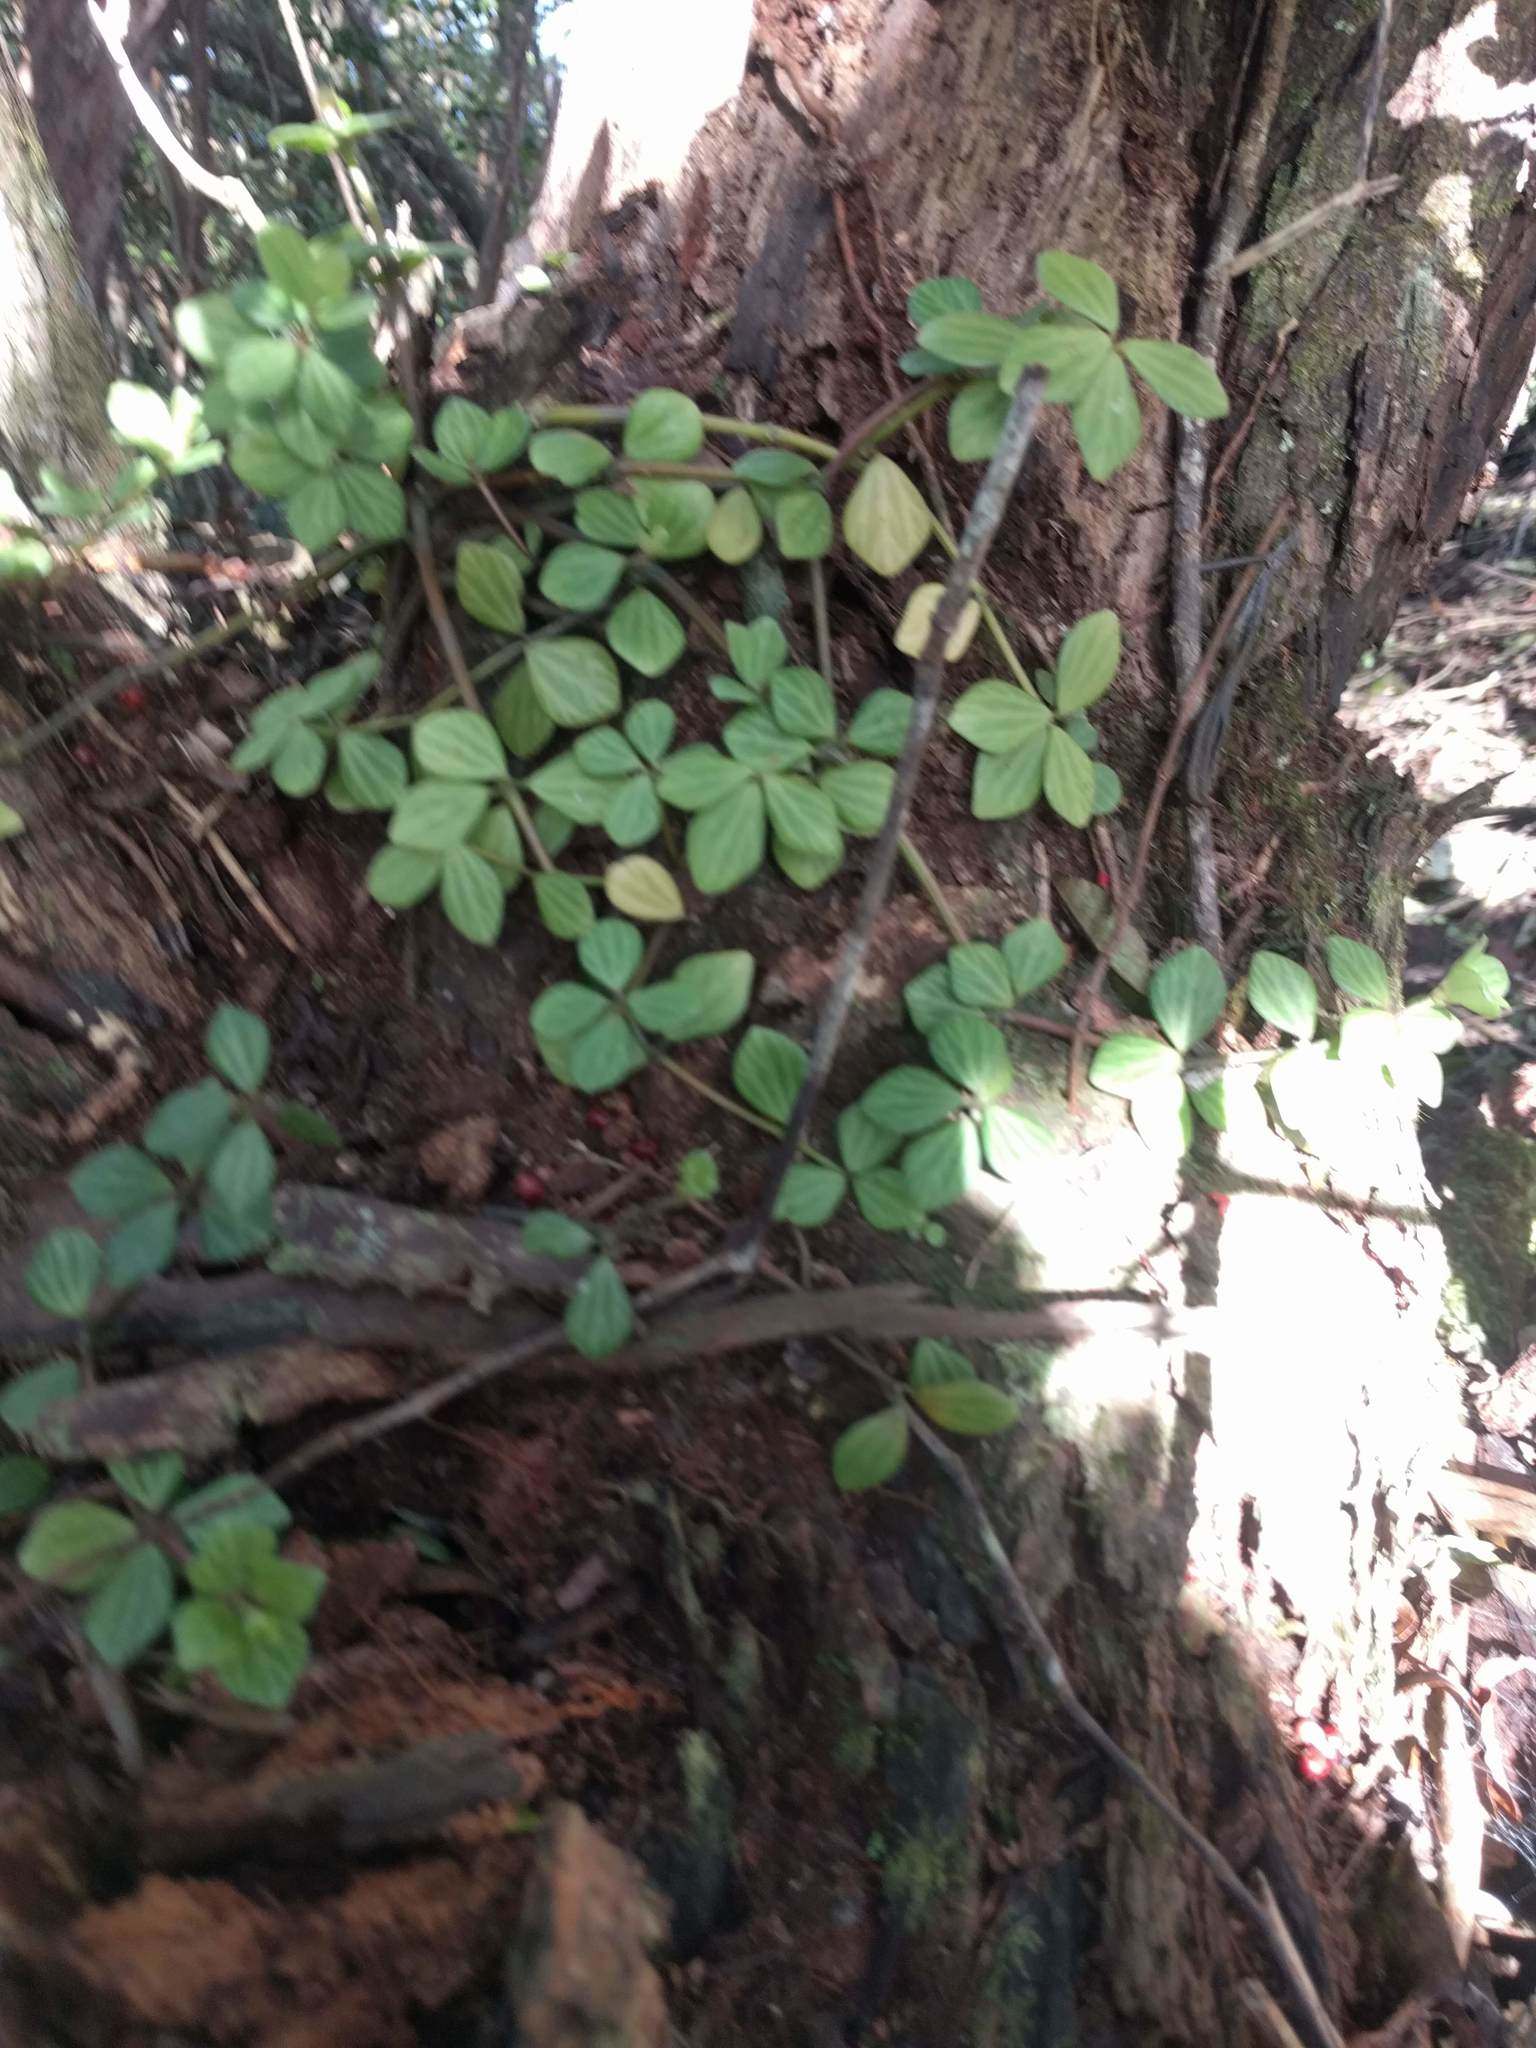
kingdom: Plantae
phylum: Tracheophyta
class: Magnoliopsida
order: Piperales
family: Piperaceae
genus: Peperomia
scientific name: Peperomia tetraphylla
